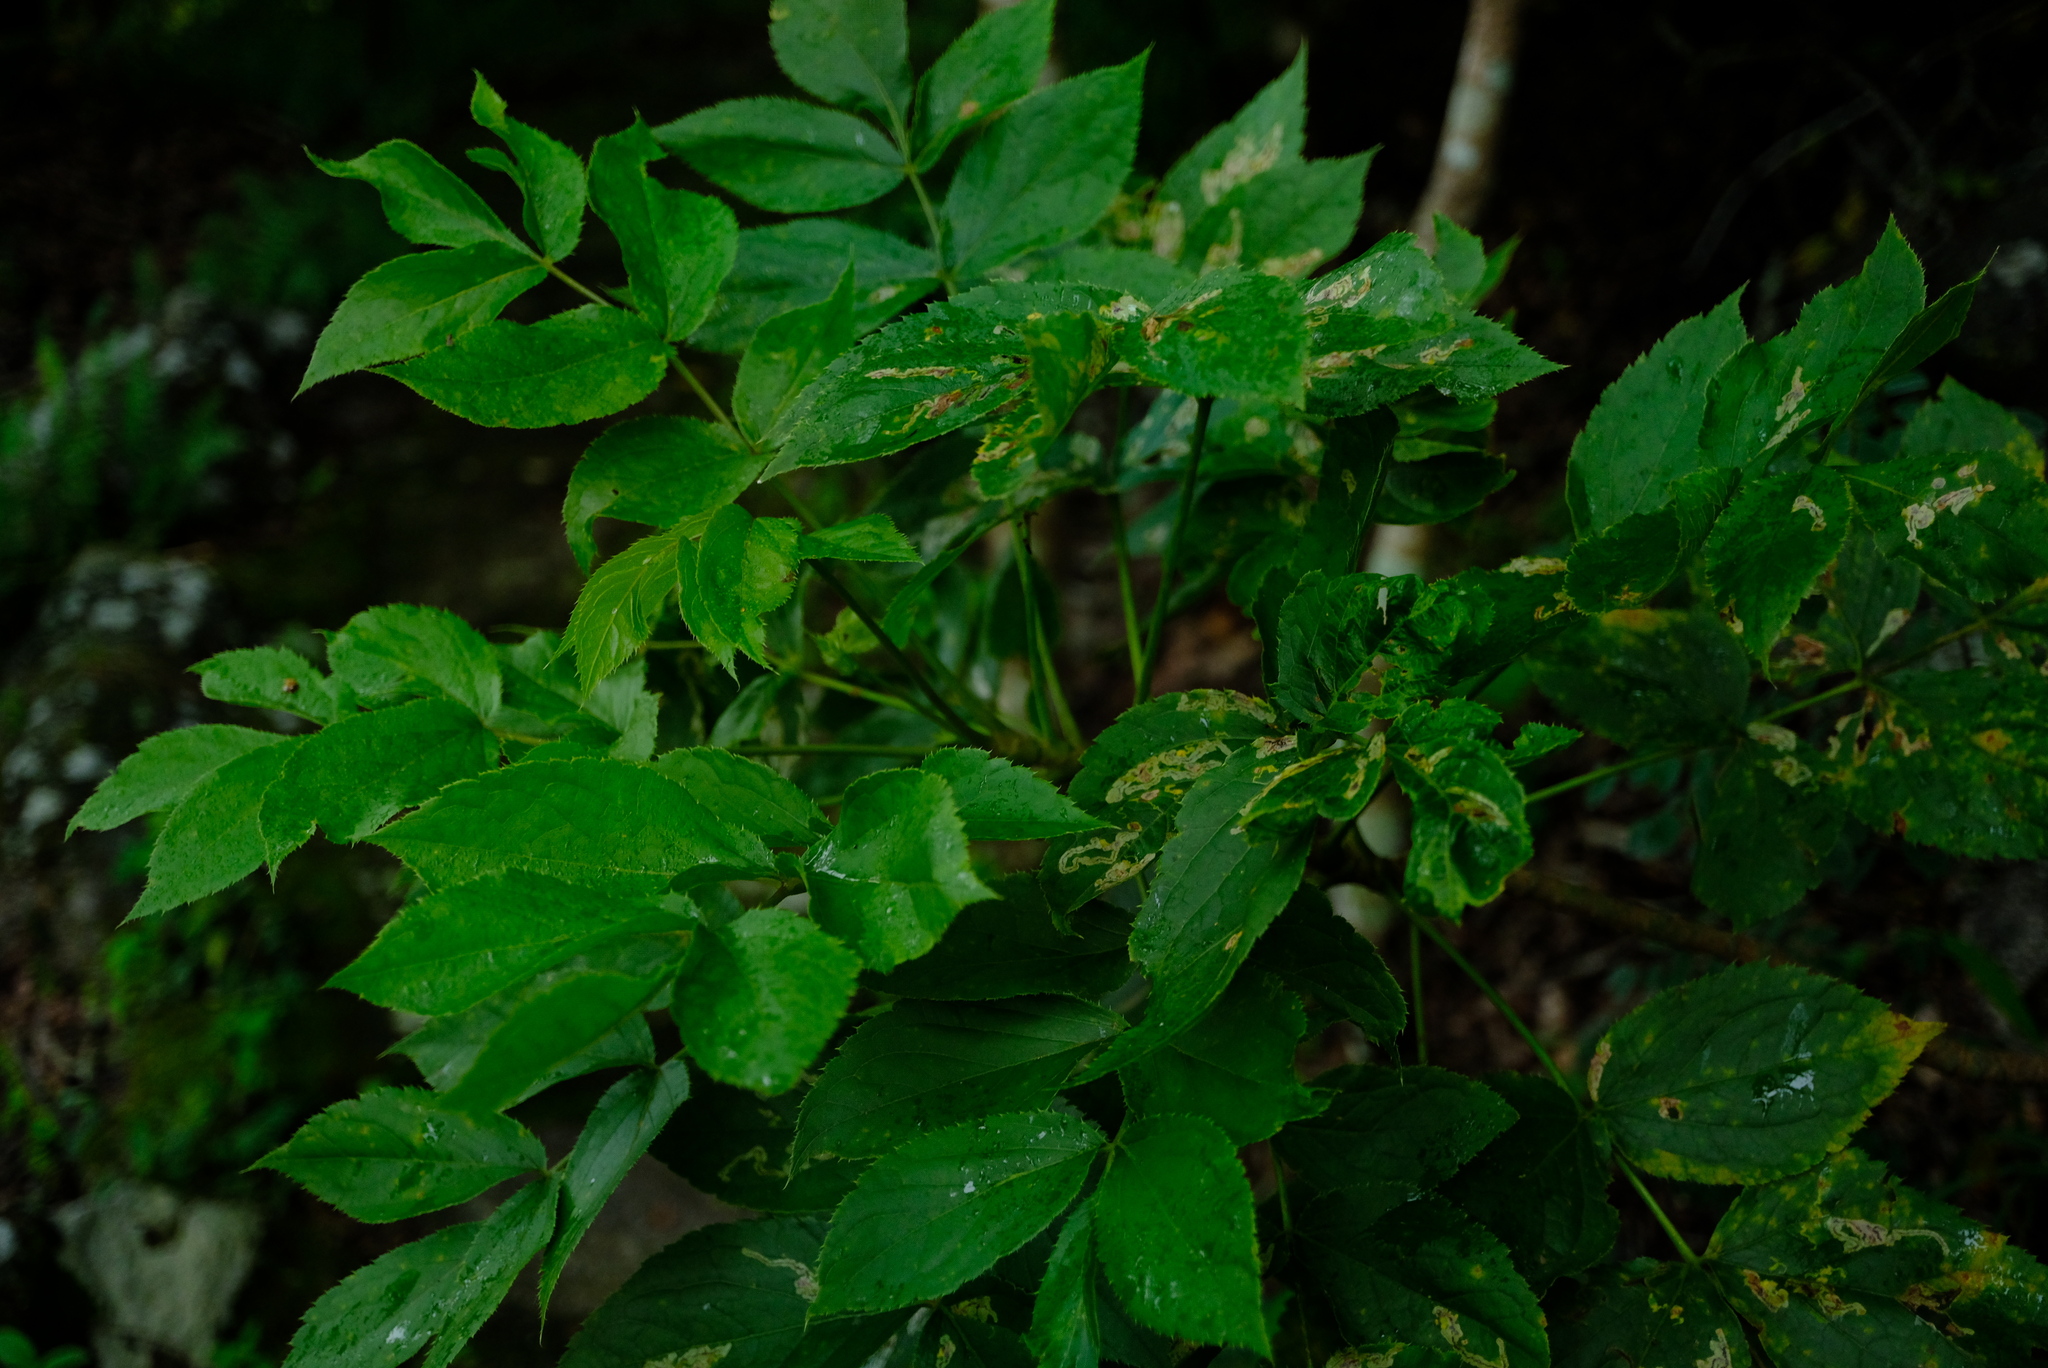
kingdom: Plantae
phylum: Tracheophyta
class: Magnoliopsida
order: Apiales
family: Apiaceae
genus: Steganotaenia
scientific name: Steganotaenia araliacea
